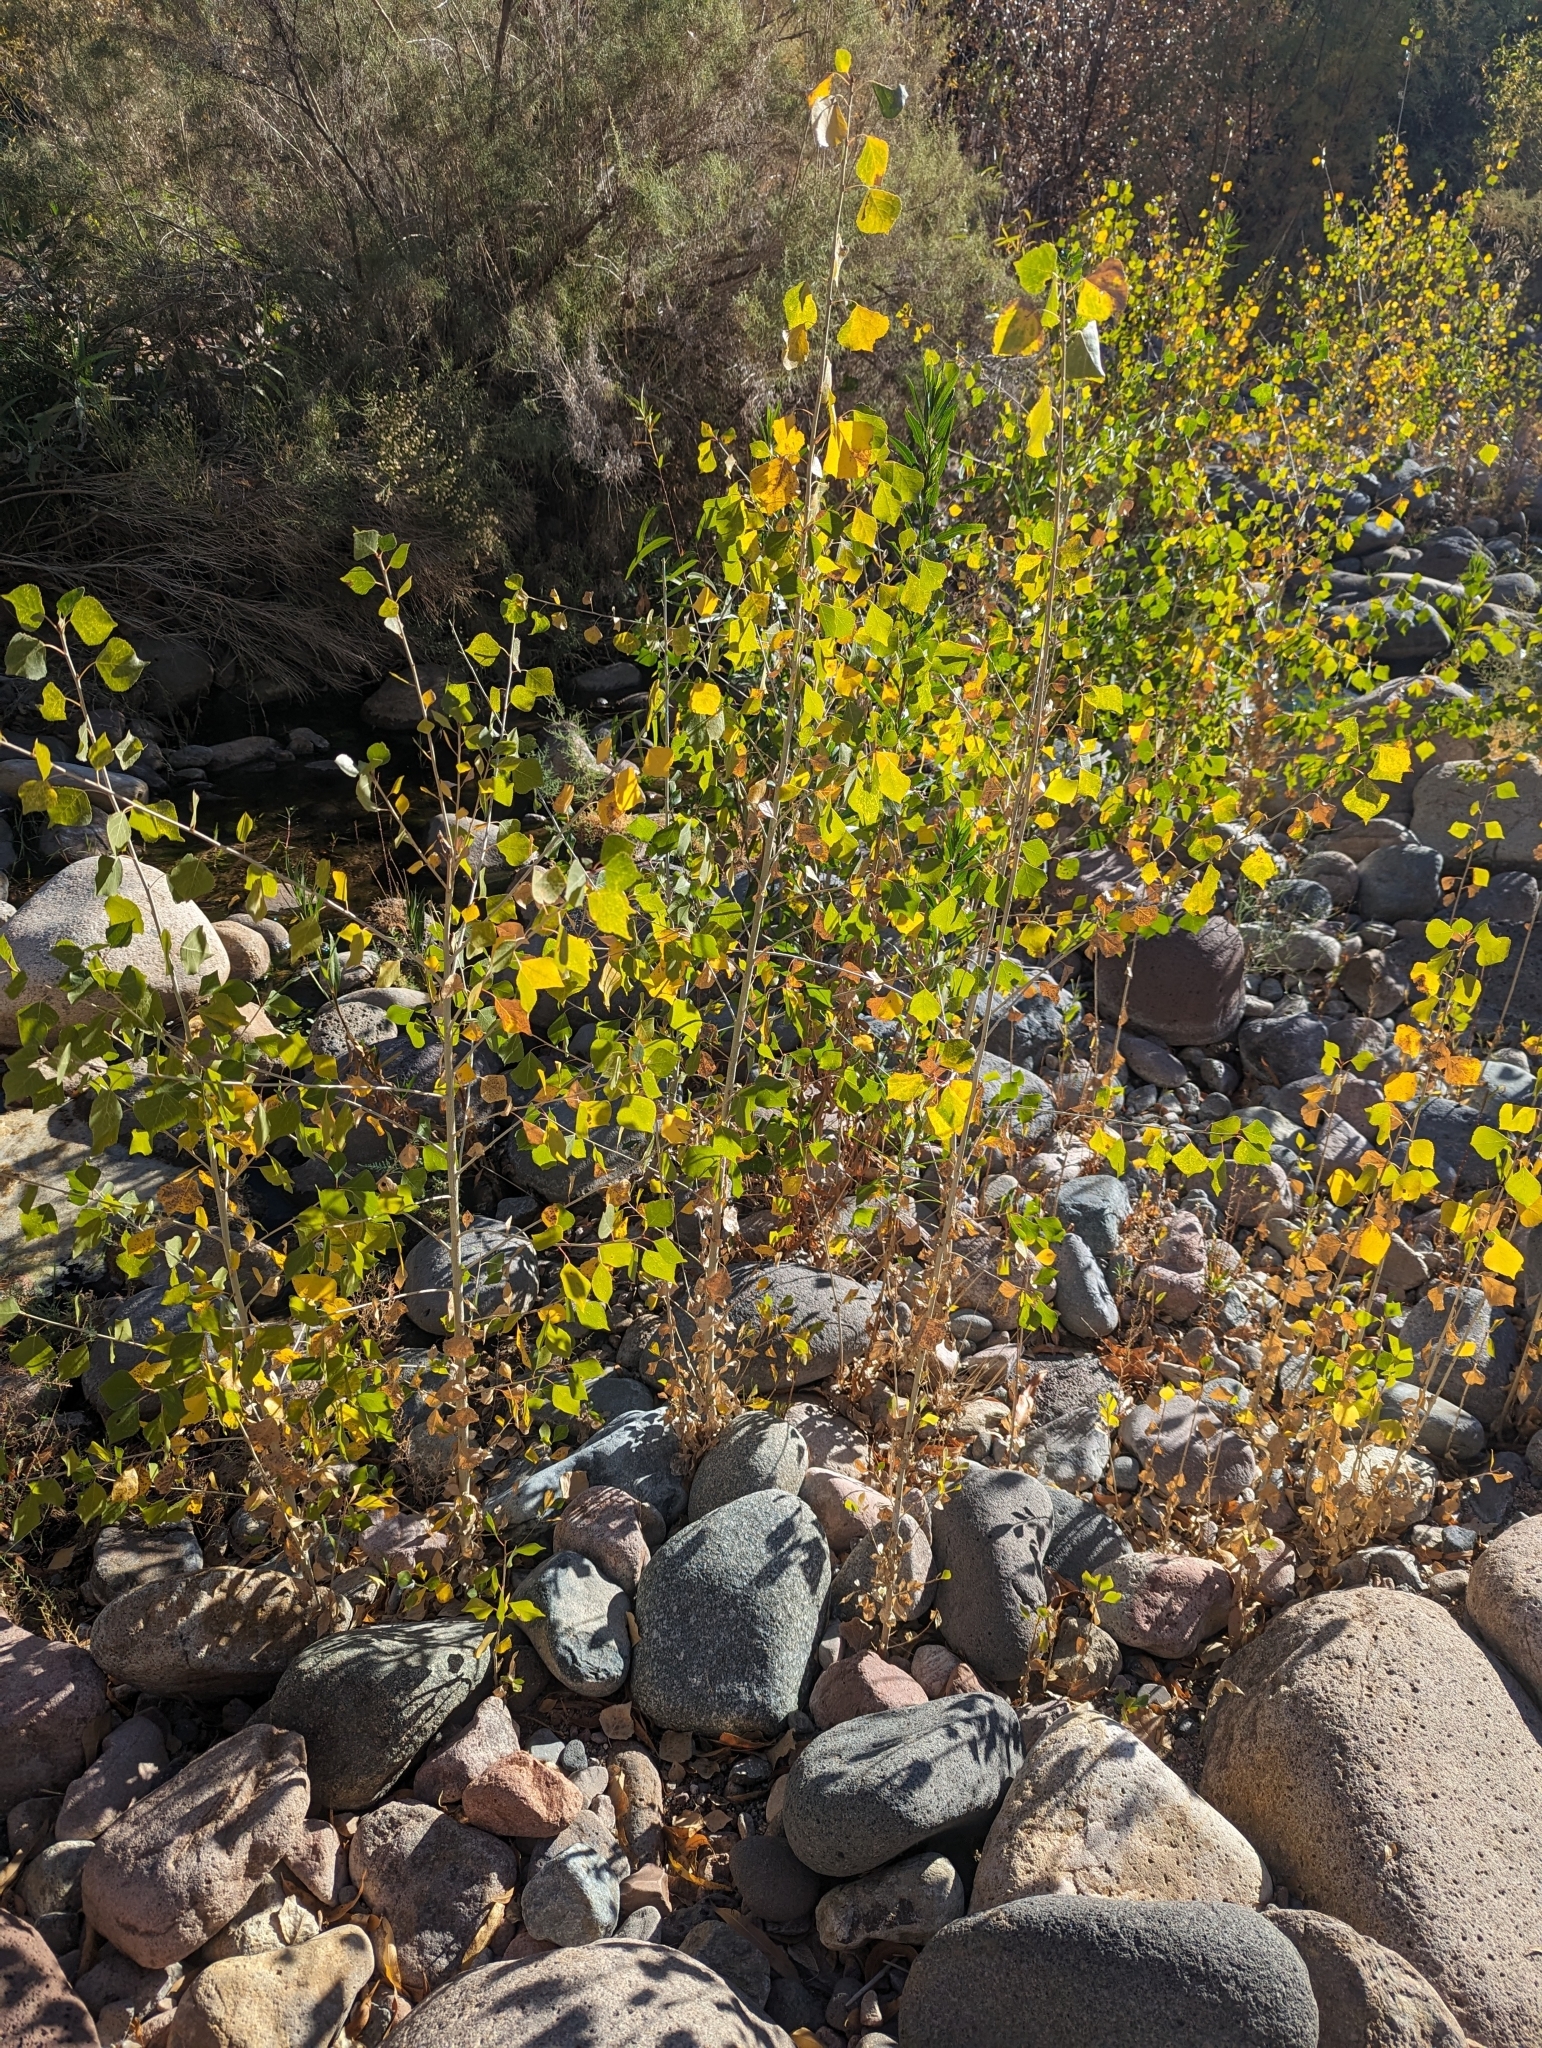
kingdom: Plantae
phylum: Tracheophyta
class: Magnoliopsida
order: Malpighiales
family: Salicaceae
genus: Populus
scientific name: Populus fremontii
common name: Fremont's cottonwood
